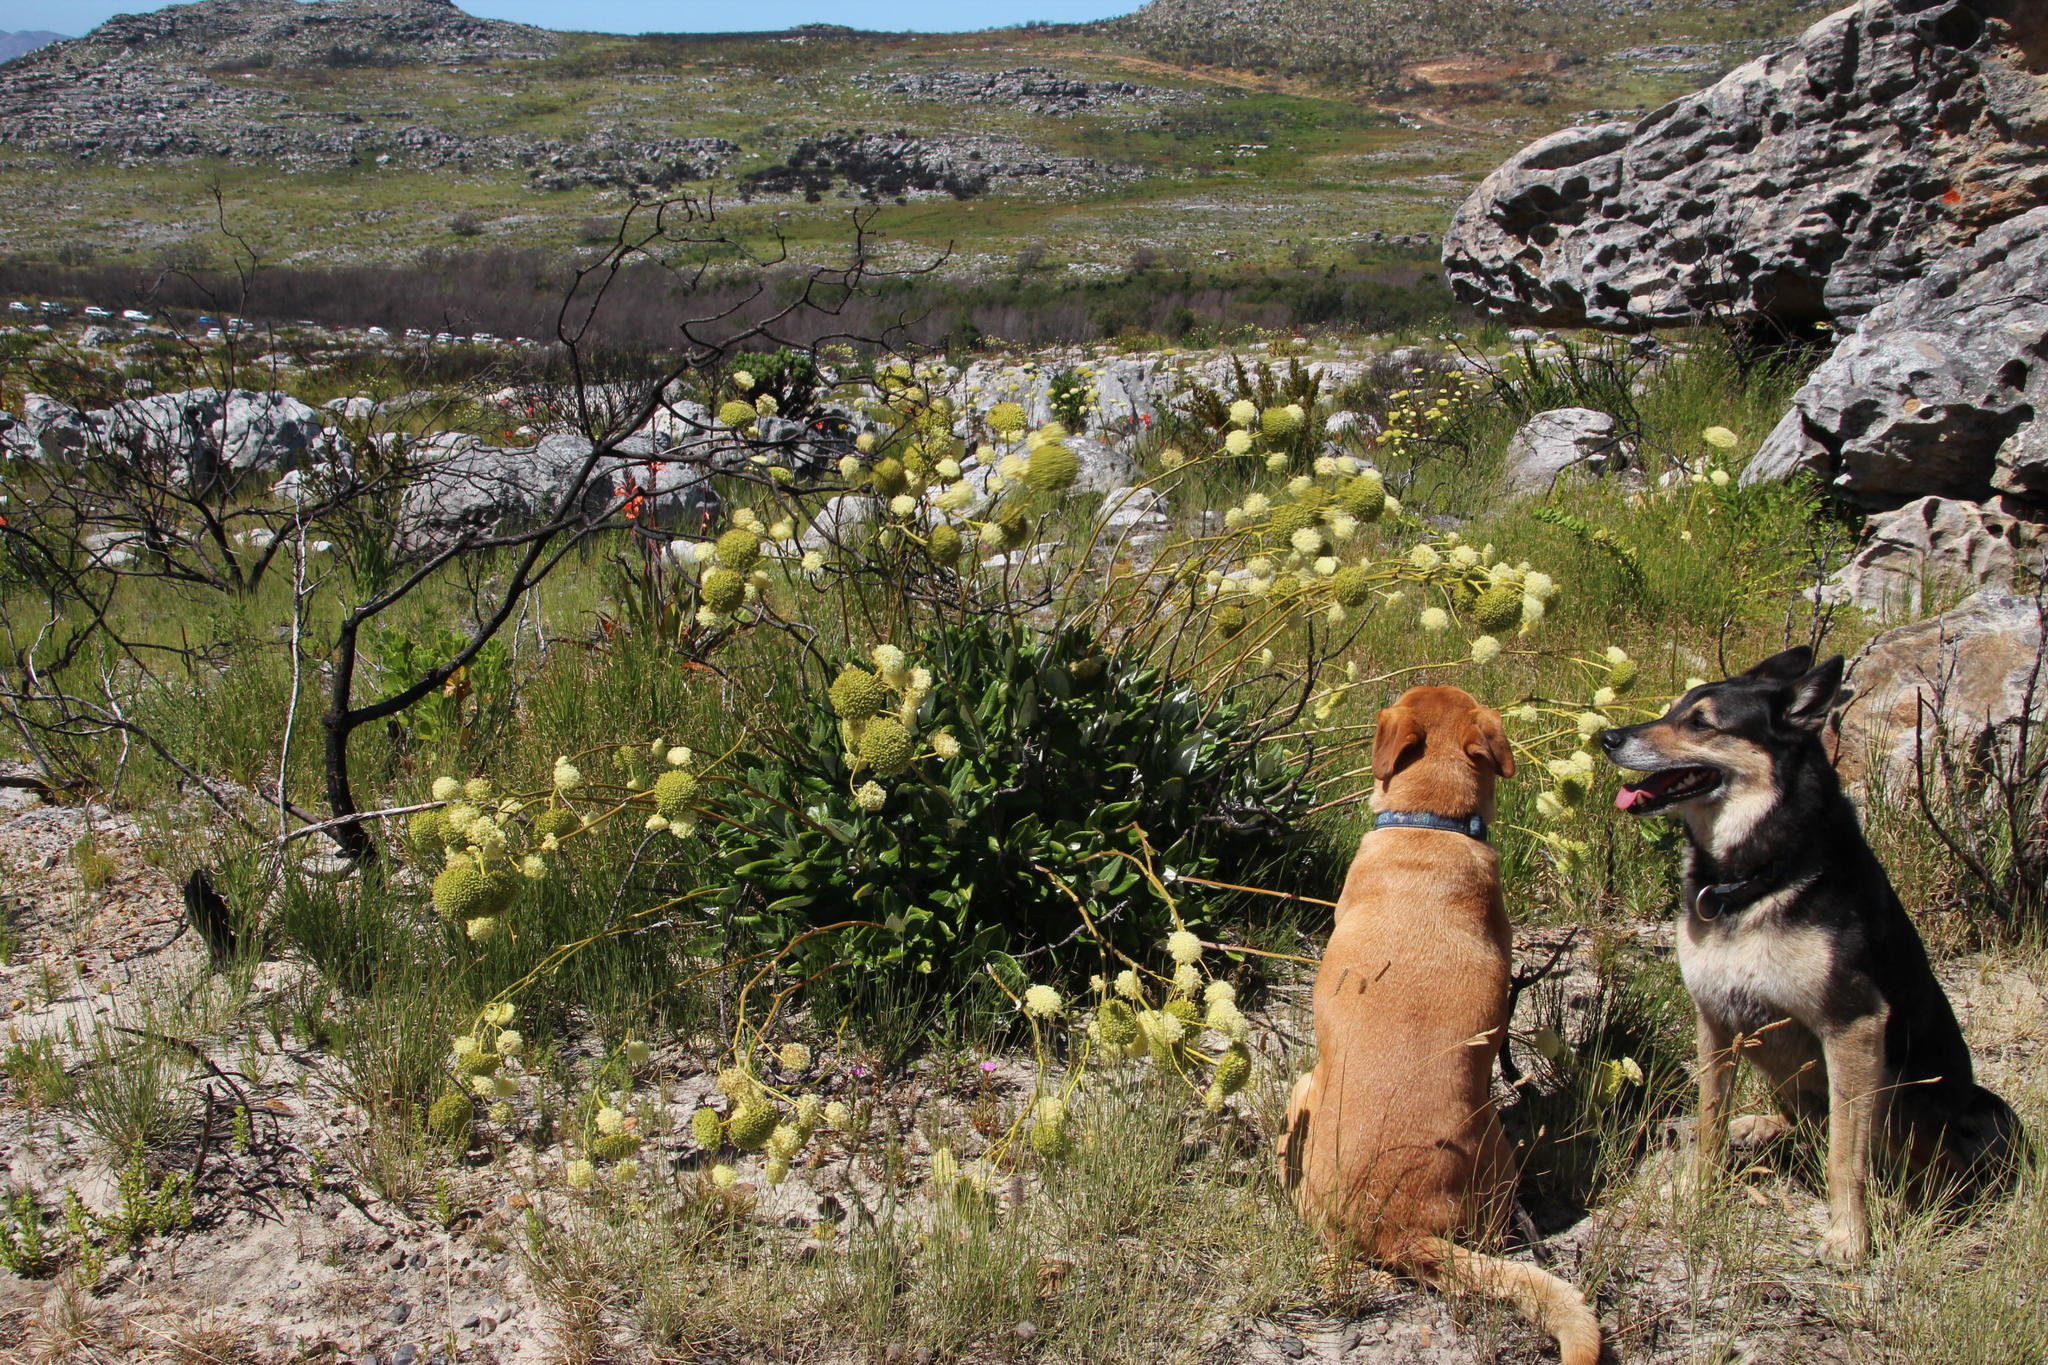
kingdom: Plantae
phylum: Tracheophyta
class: Magnoliopsida
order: Apiales
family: Apiaceae
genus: Hermas
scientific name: Hermas villosa
